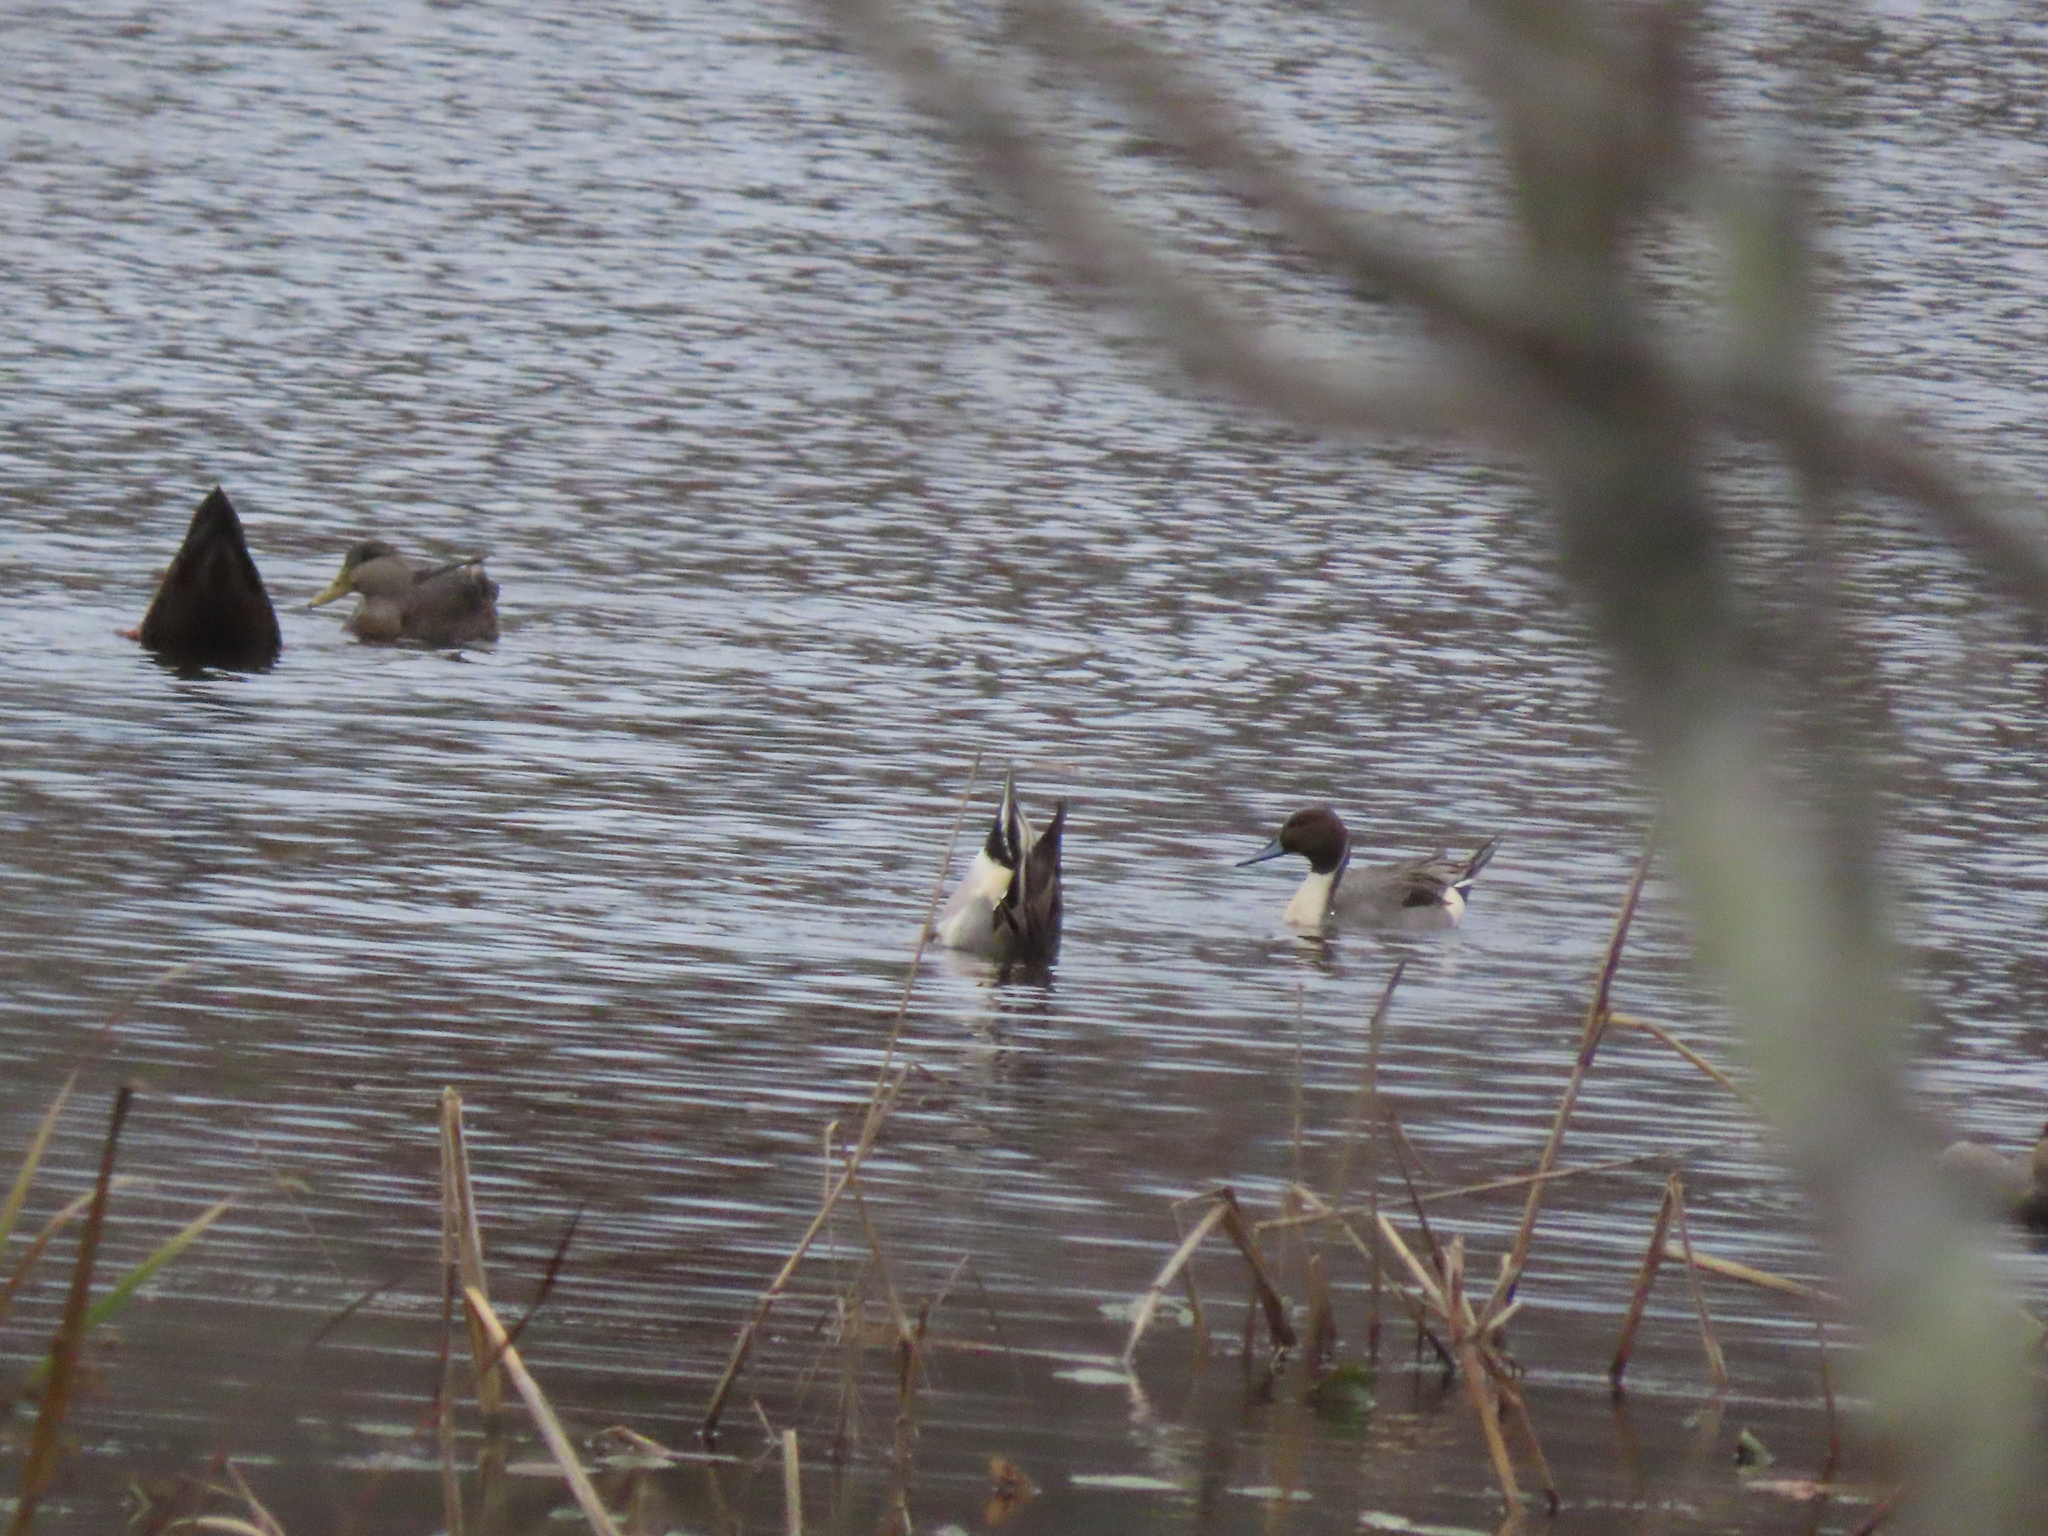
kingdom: Animalia
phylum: Chordata
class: Aves
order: Anseriformes
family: Anatidae
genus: Anas
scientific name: Anas acuta
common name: Northern pintail
